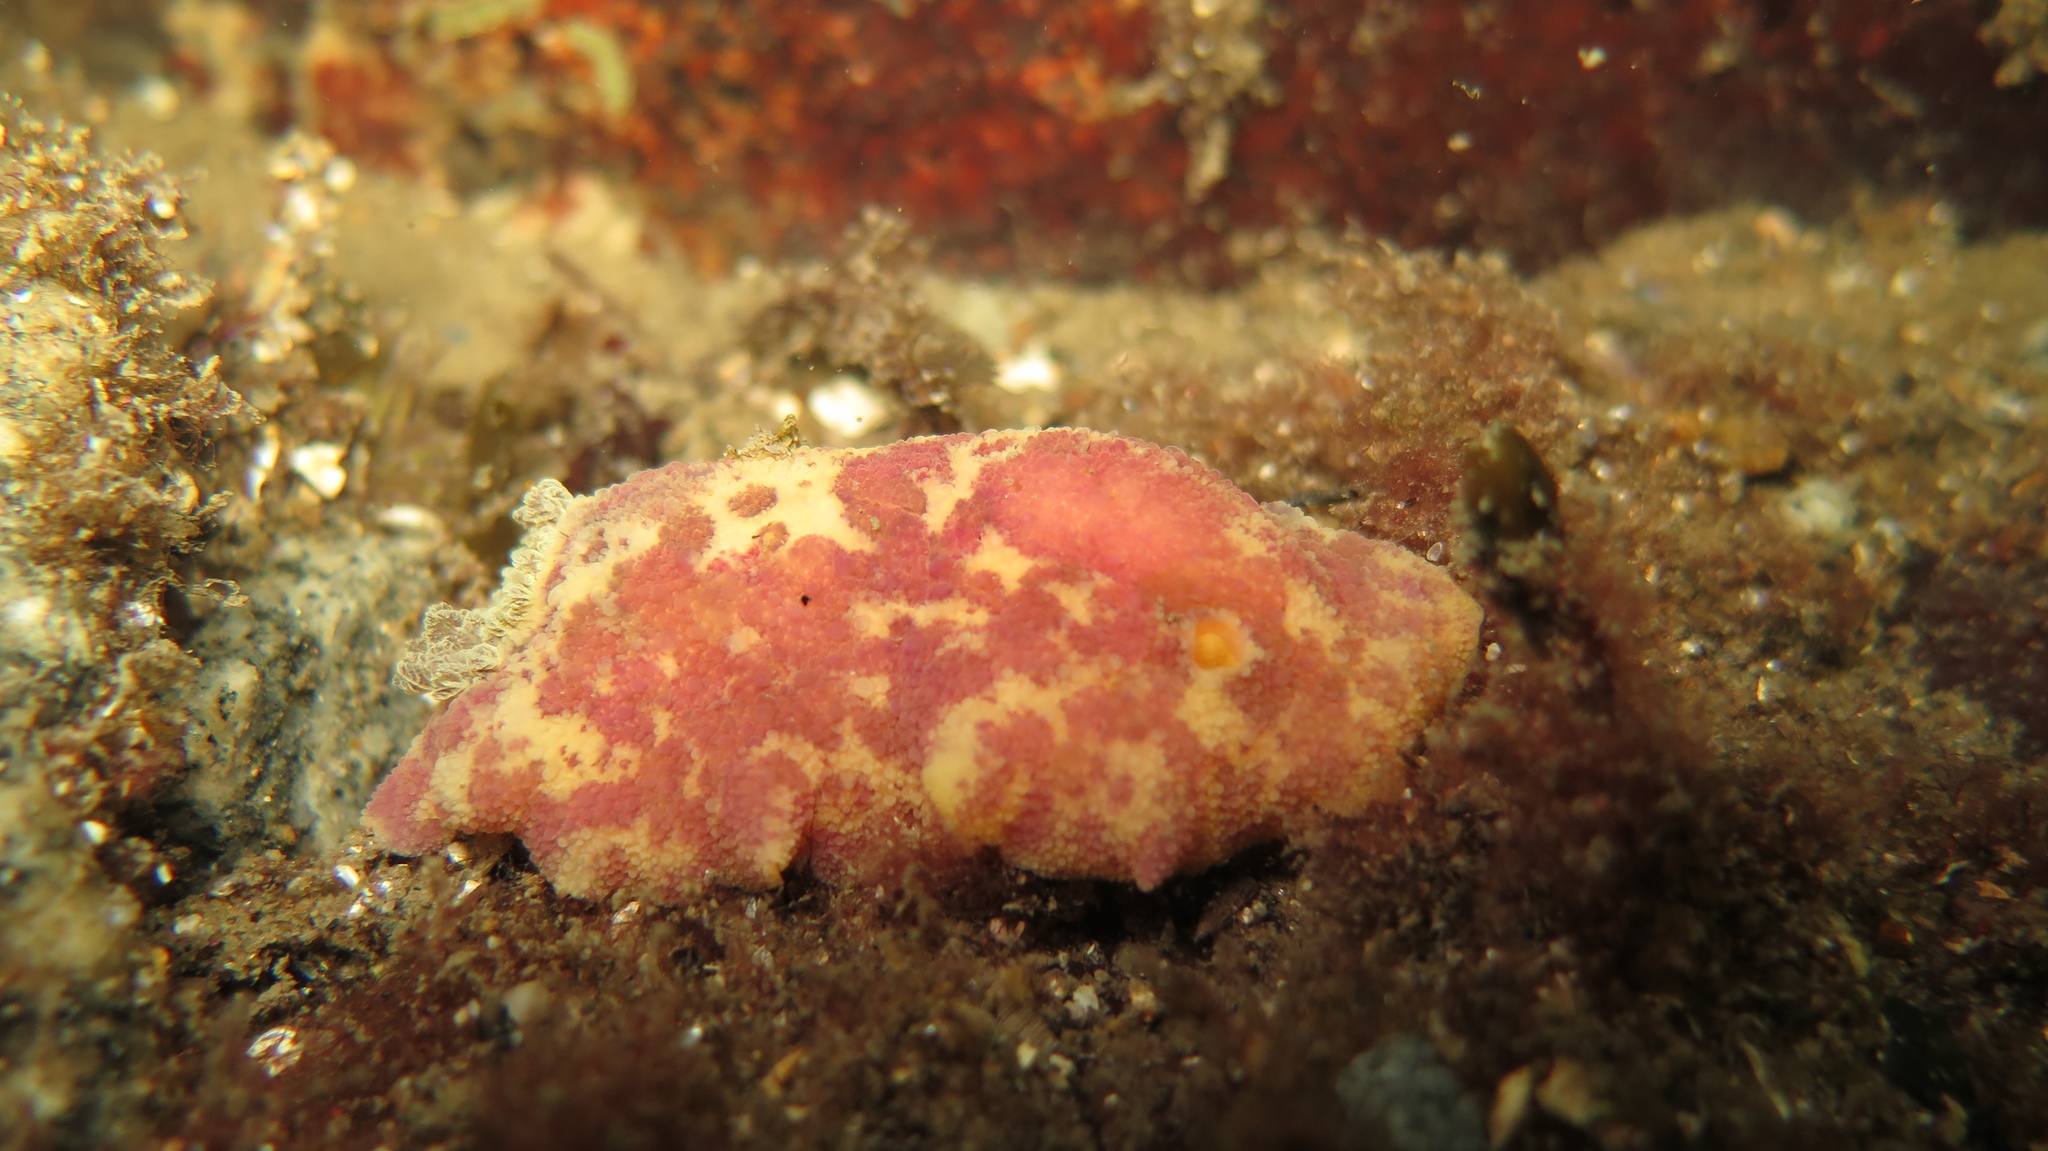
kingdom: Animalia
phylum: Mollusca
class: Gastropoda
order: Nudibranchia
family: Dorididae
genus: Doris
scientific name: Doris pseudoargus
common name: Sea lemon
